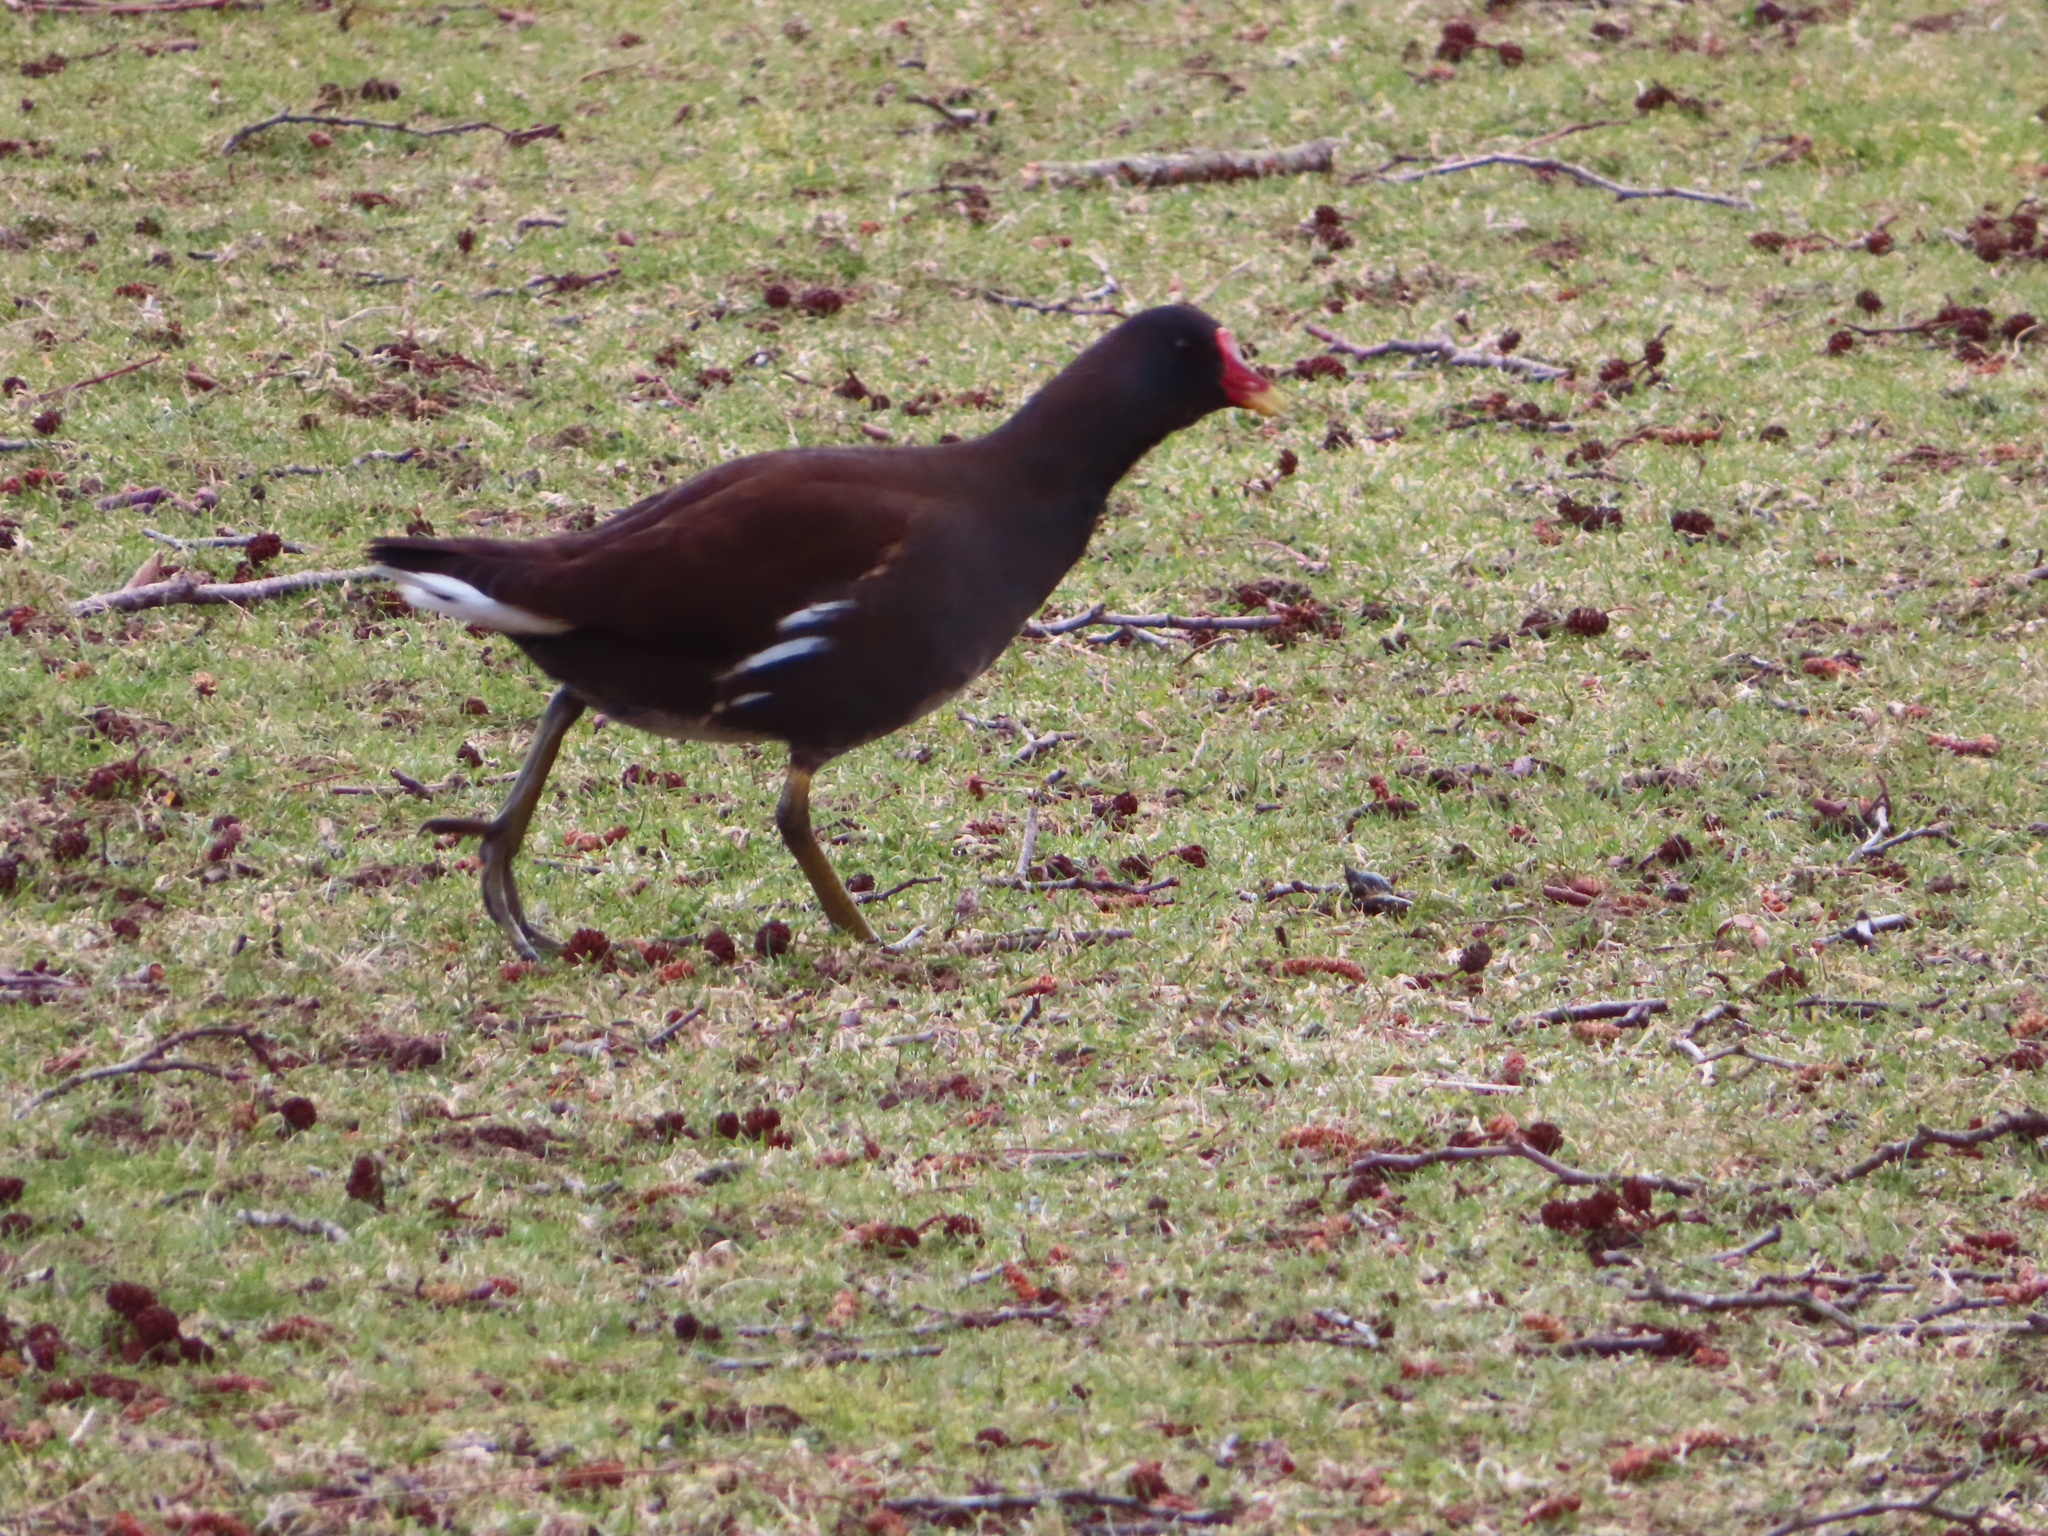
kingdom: Animalia
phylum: Chordata
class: Aves
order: Gruiformes
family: Rallidae
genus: Gallinula
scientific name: Gallinula chloropus
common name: Common moorhen
